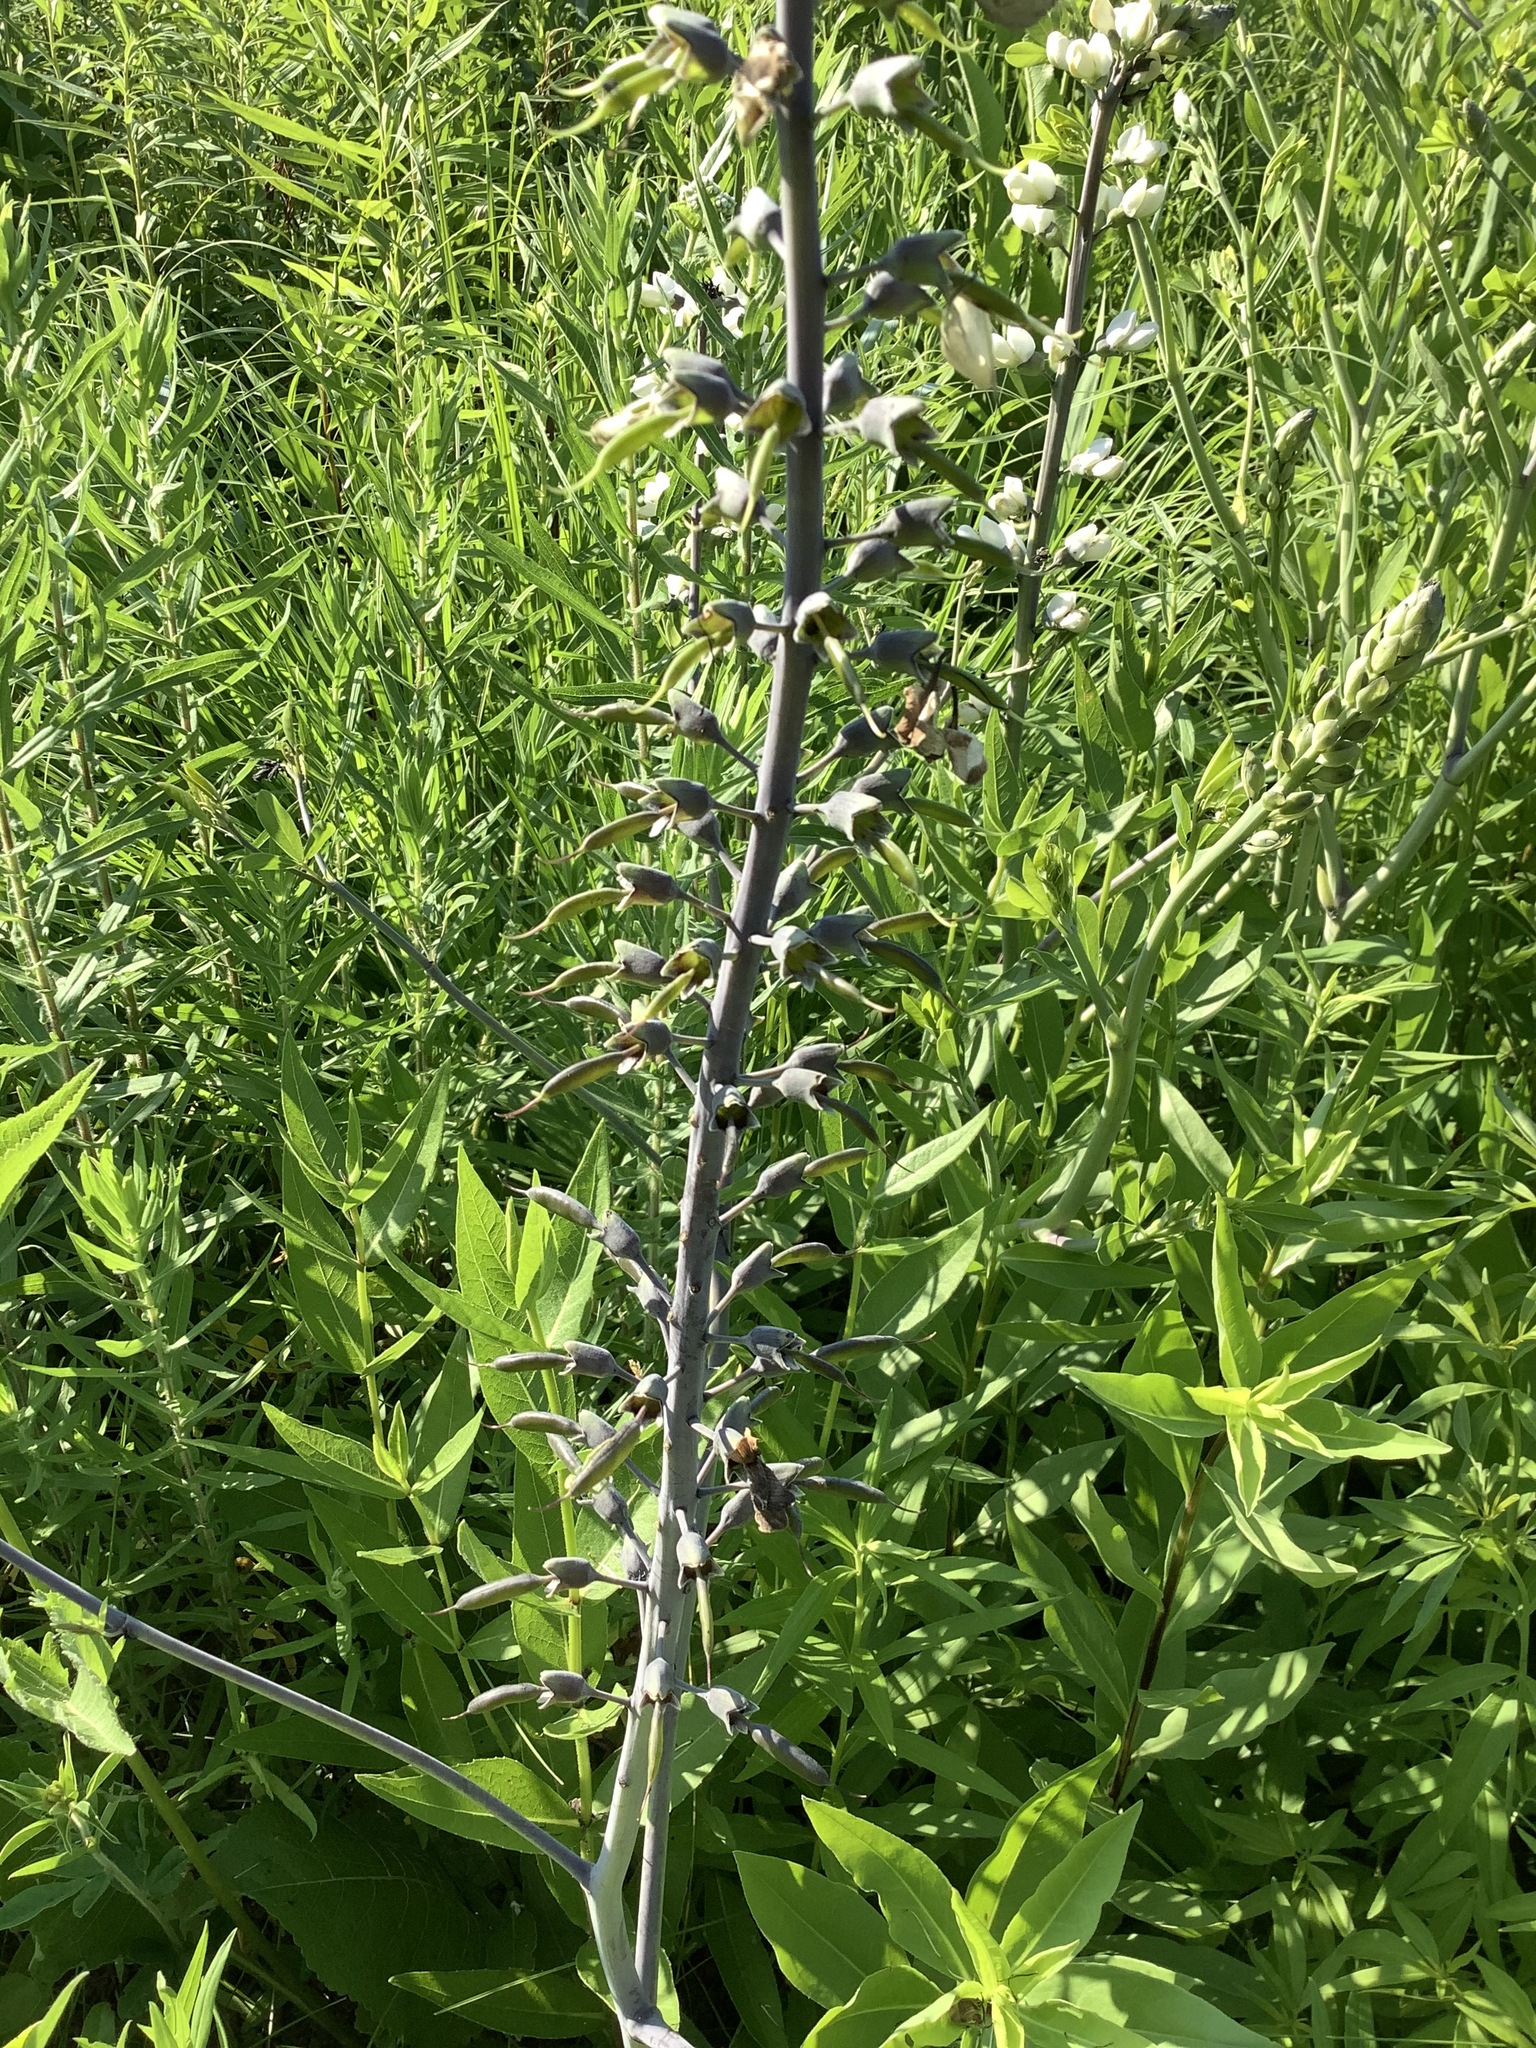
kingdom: Plantae
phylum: Tracheophyta
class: Magnoliopsida
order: Fabales
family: Fabaceae
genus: Baptisia
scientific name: Baptisia alba
